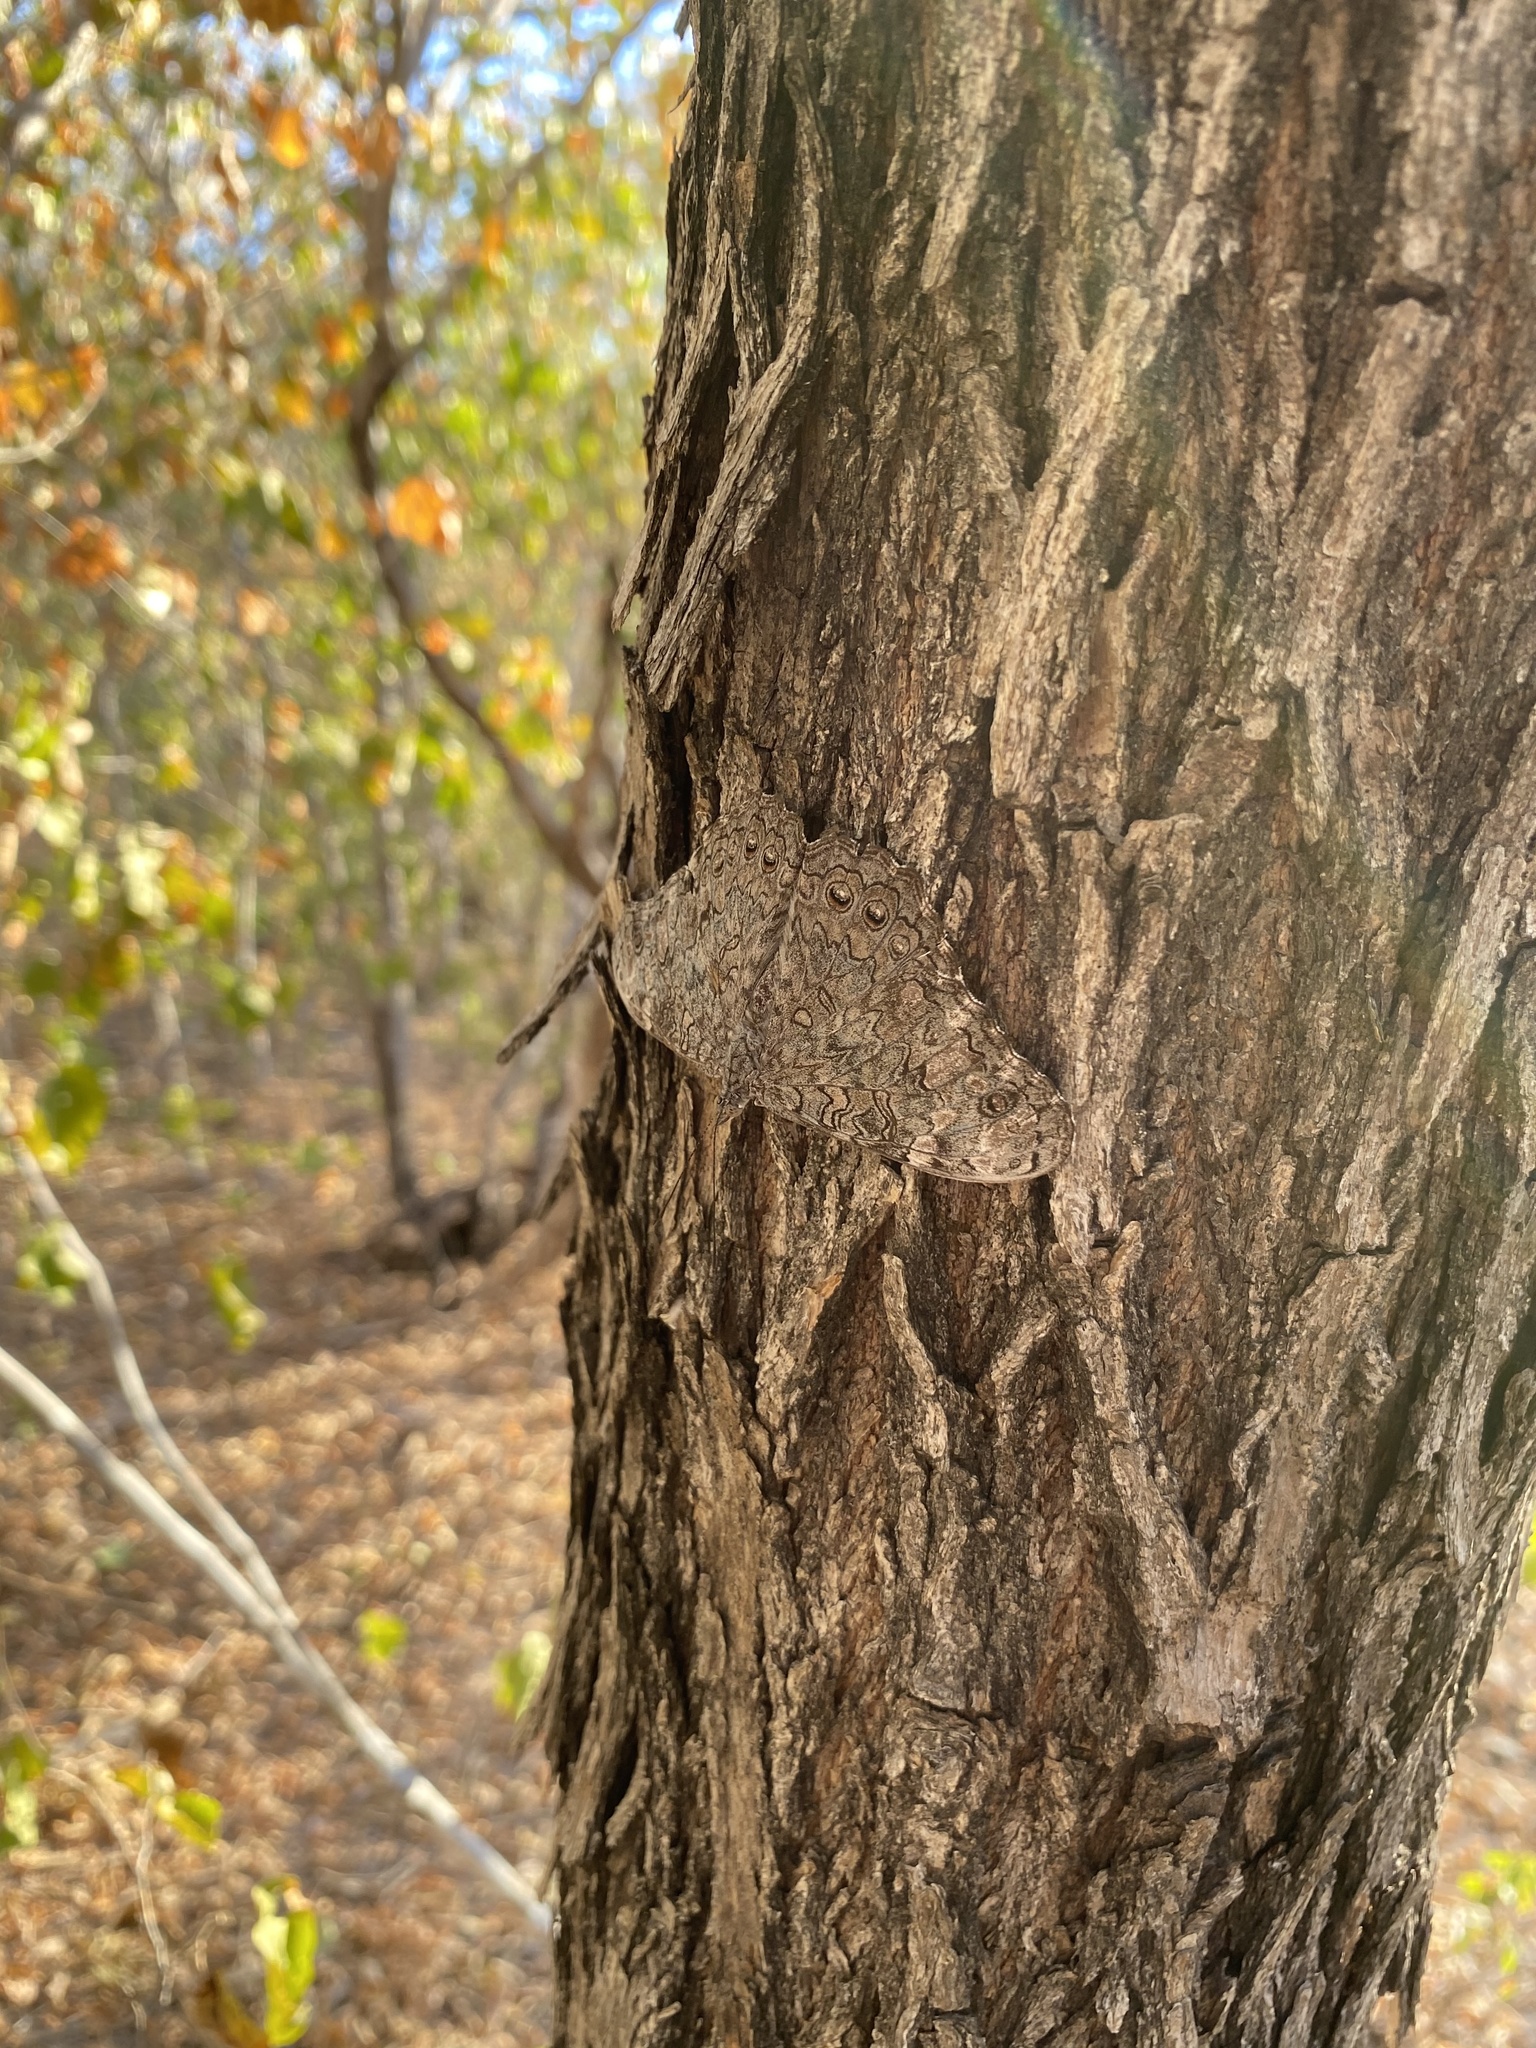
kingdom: Animalia
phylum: Arthropoda
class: Insecta
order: Lepidoptera
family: Nymphalidae
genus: Hamadryas
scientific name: Hamadryas glauconome
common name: Glaucous cracker
